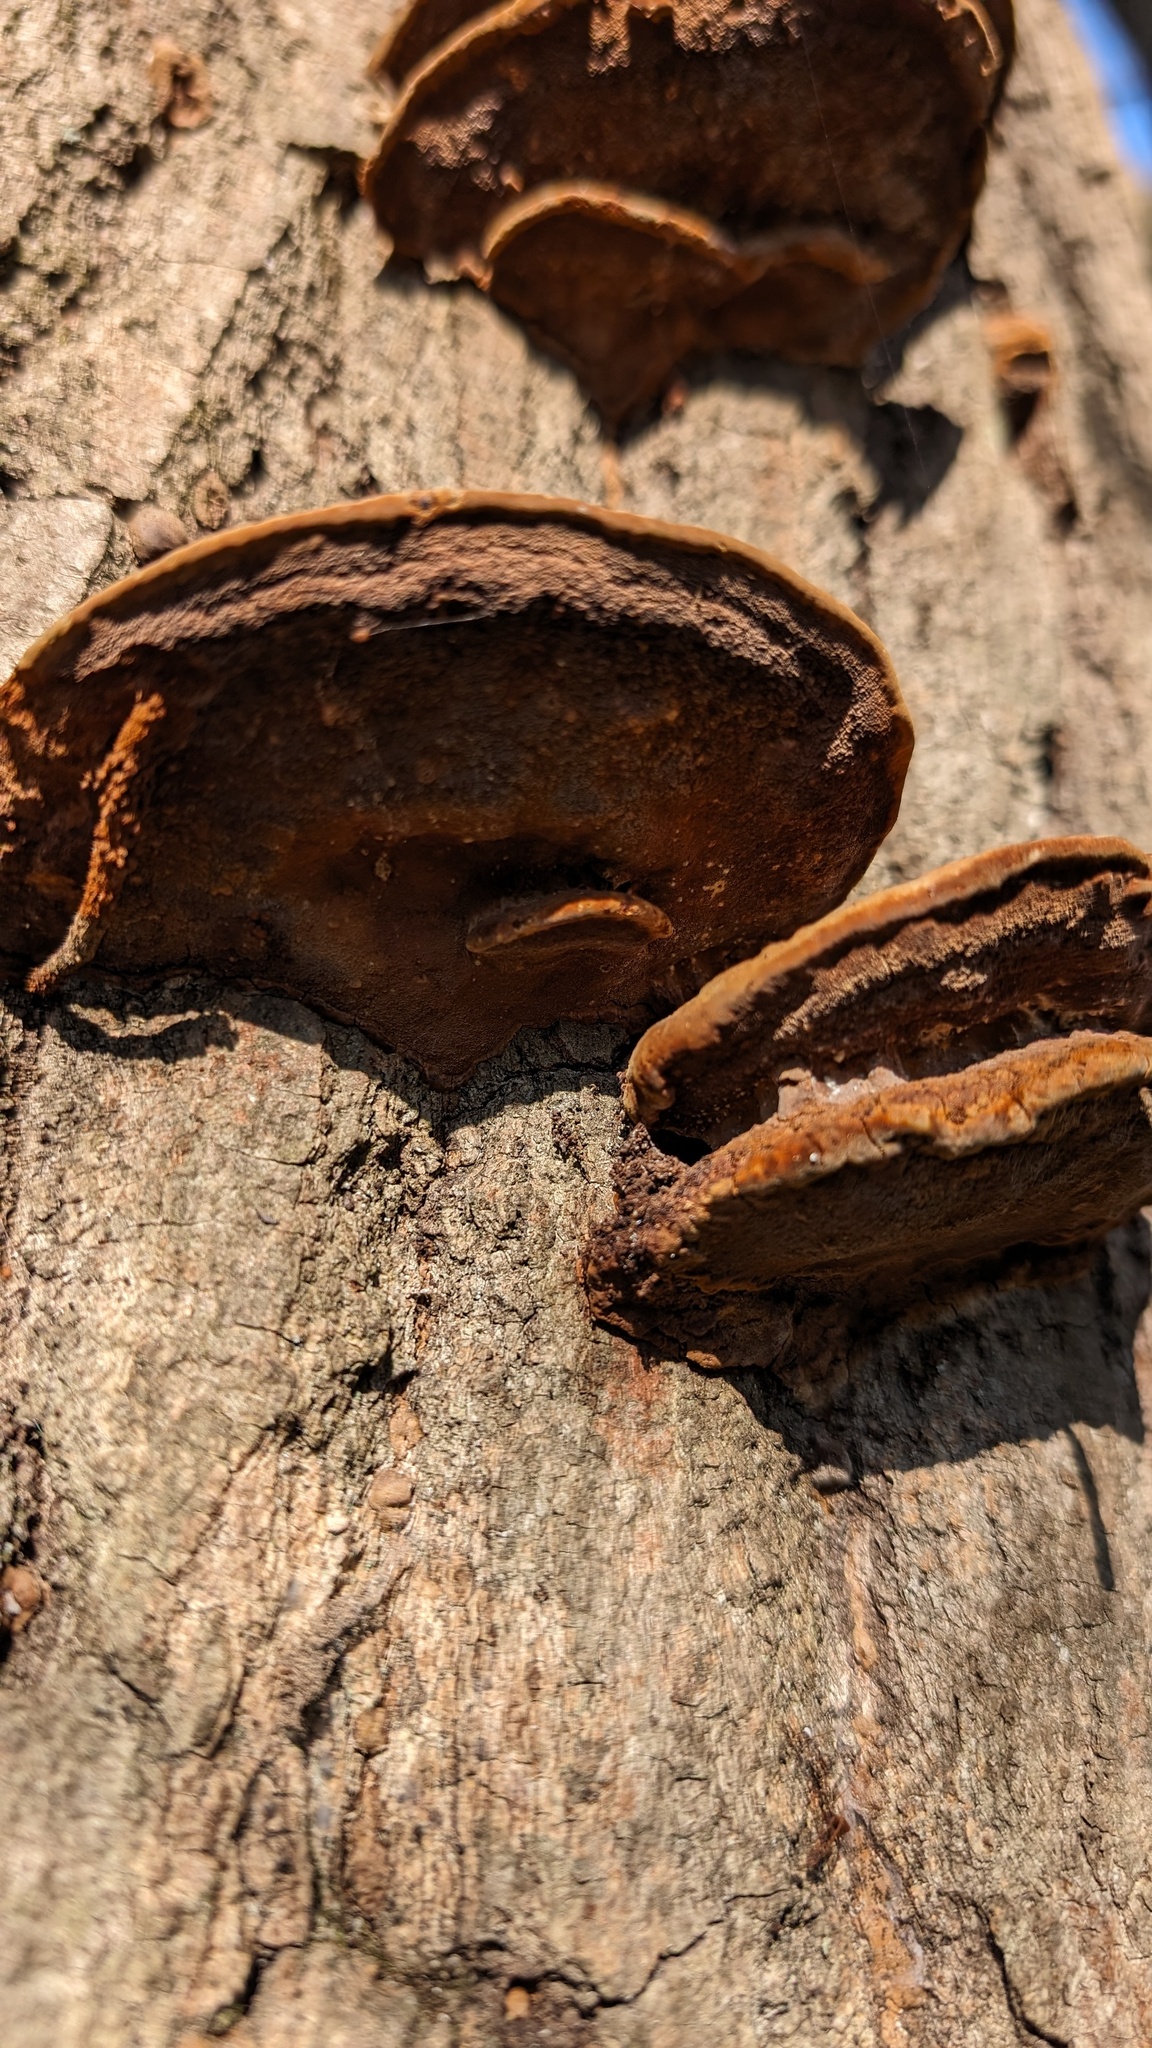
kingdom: Fungi
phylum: Basidiomycota
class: Agaricomycetes
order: Hymenochaetales
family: Hymenochaetaceae
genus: Phellinus
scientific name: Phellinus gilvus
